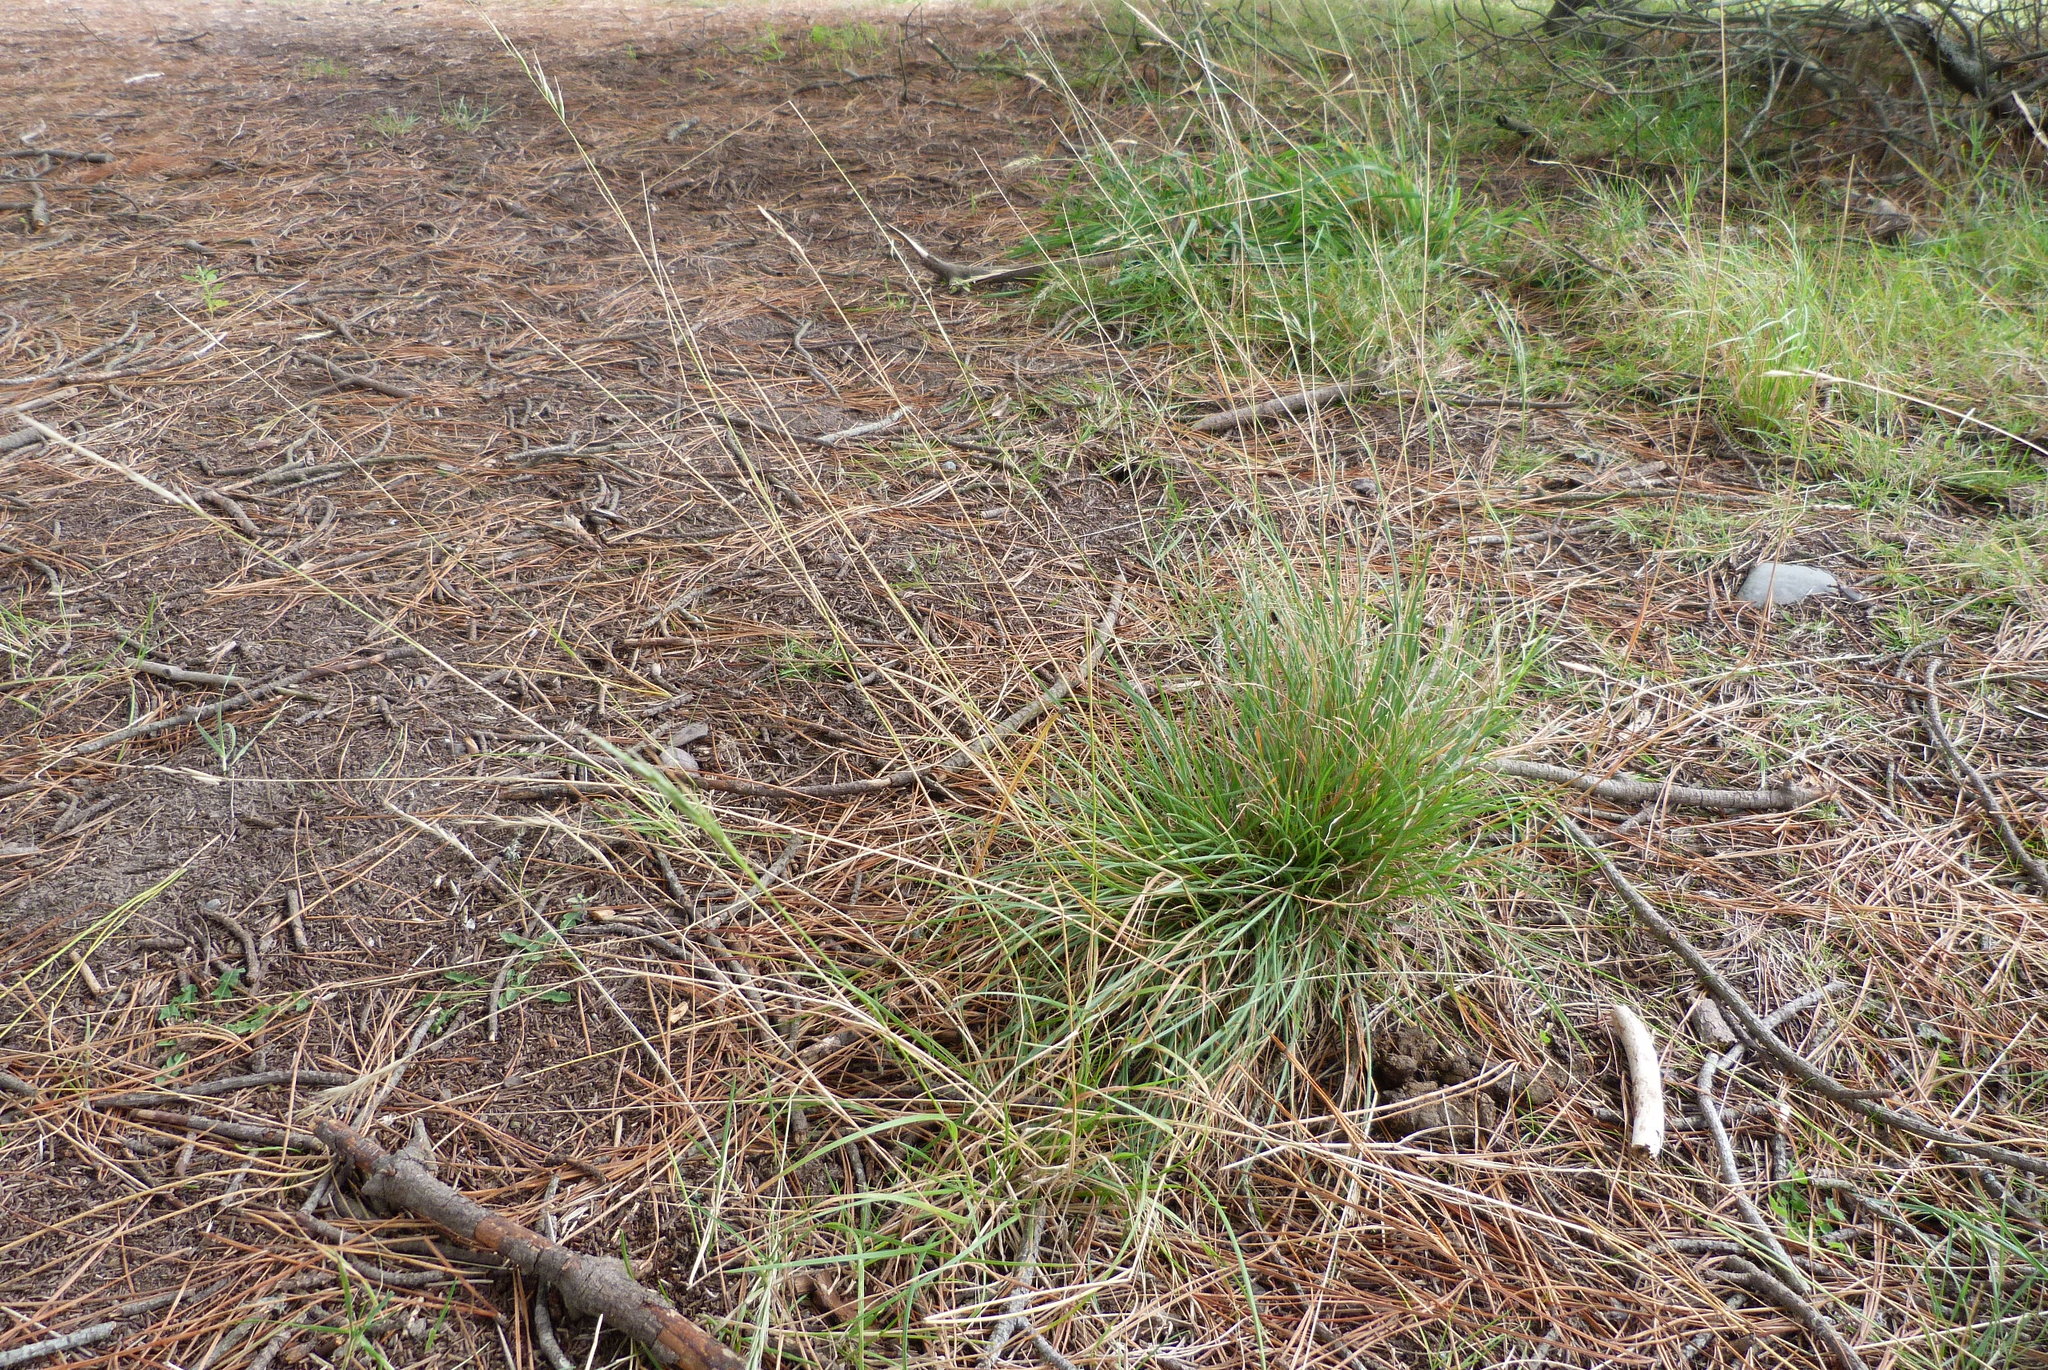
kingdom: Plantae
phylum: Tracheophyta
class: Liliopsida
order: Poales
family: Poaceae
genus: Rytidosperma
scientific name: Rytidosperma caespitosum
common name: Tufted wallaby grass
